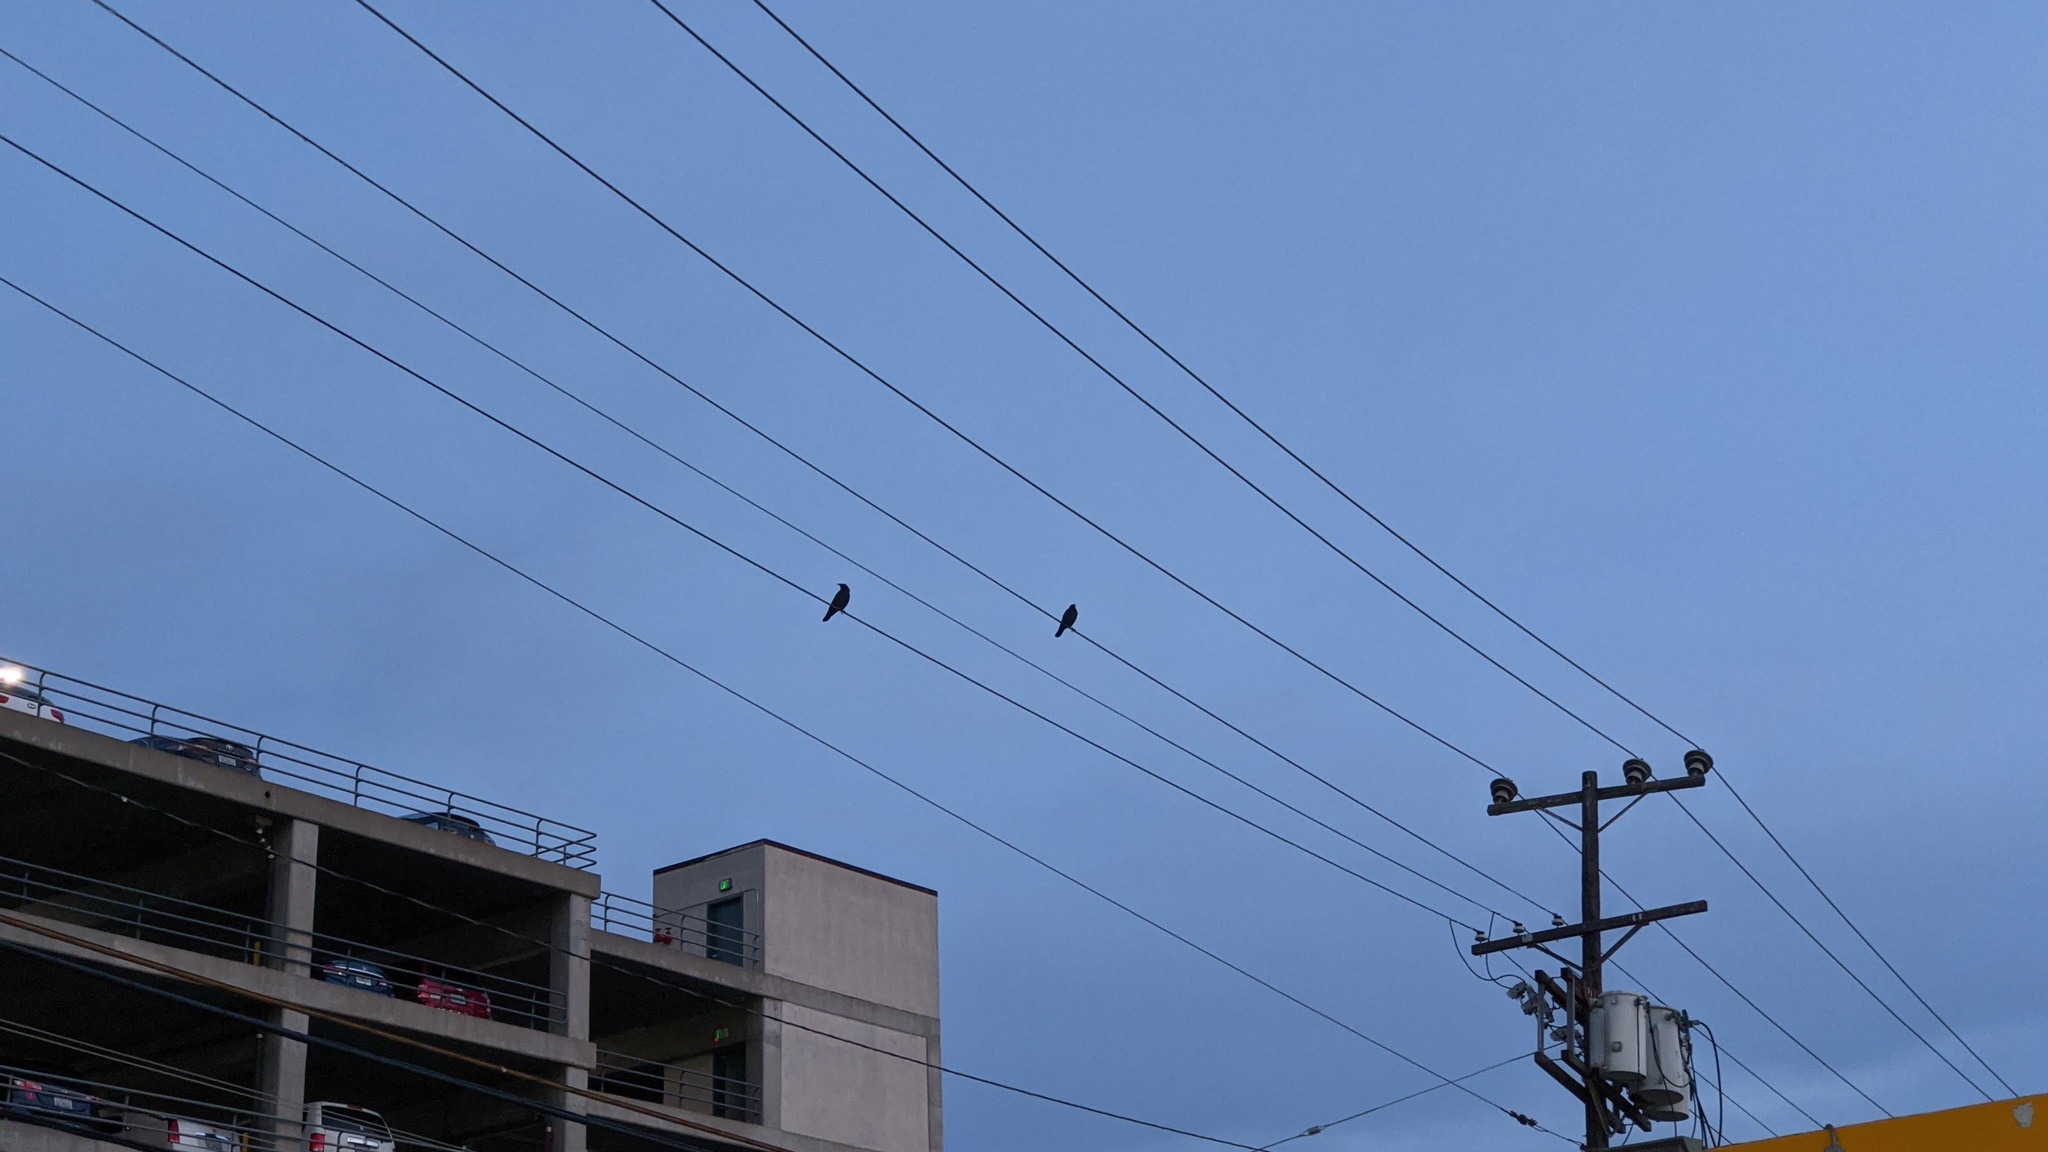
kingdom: Animalia
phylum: Chordata
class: Aves
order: Passeriformes
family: Corvidae
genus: Corvus
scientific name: Corvus brachyrhynchos
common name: American crow
